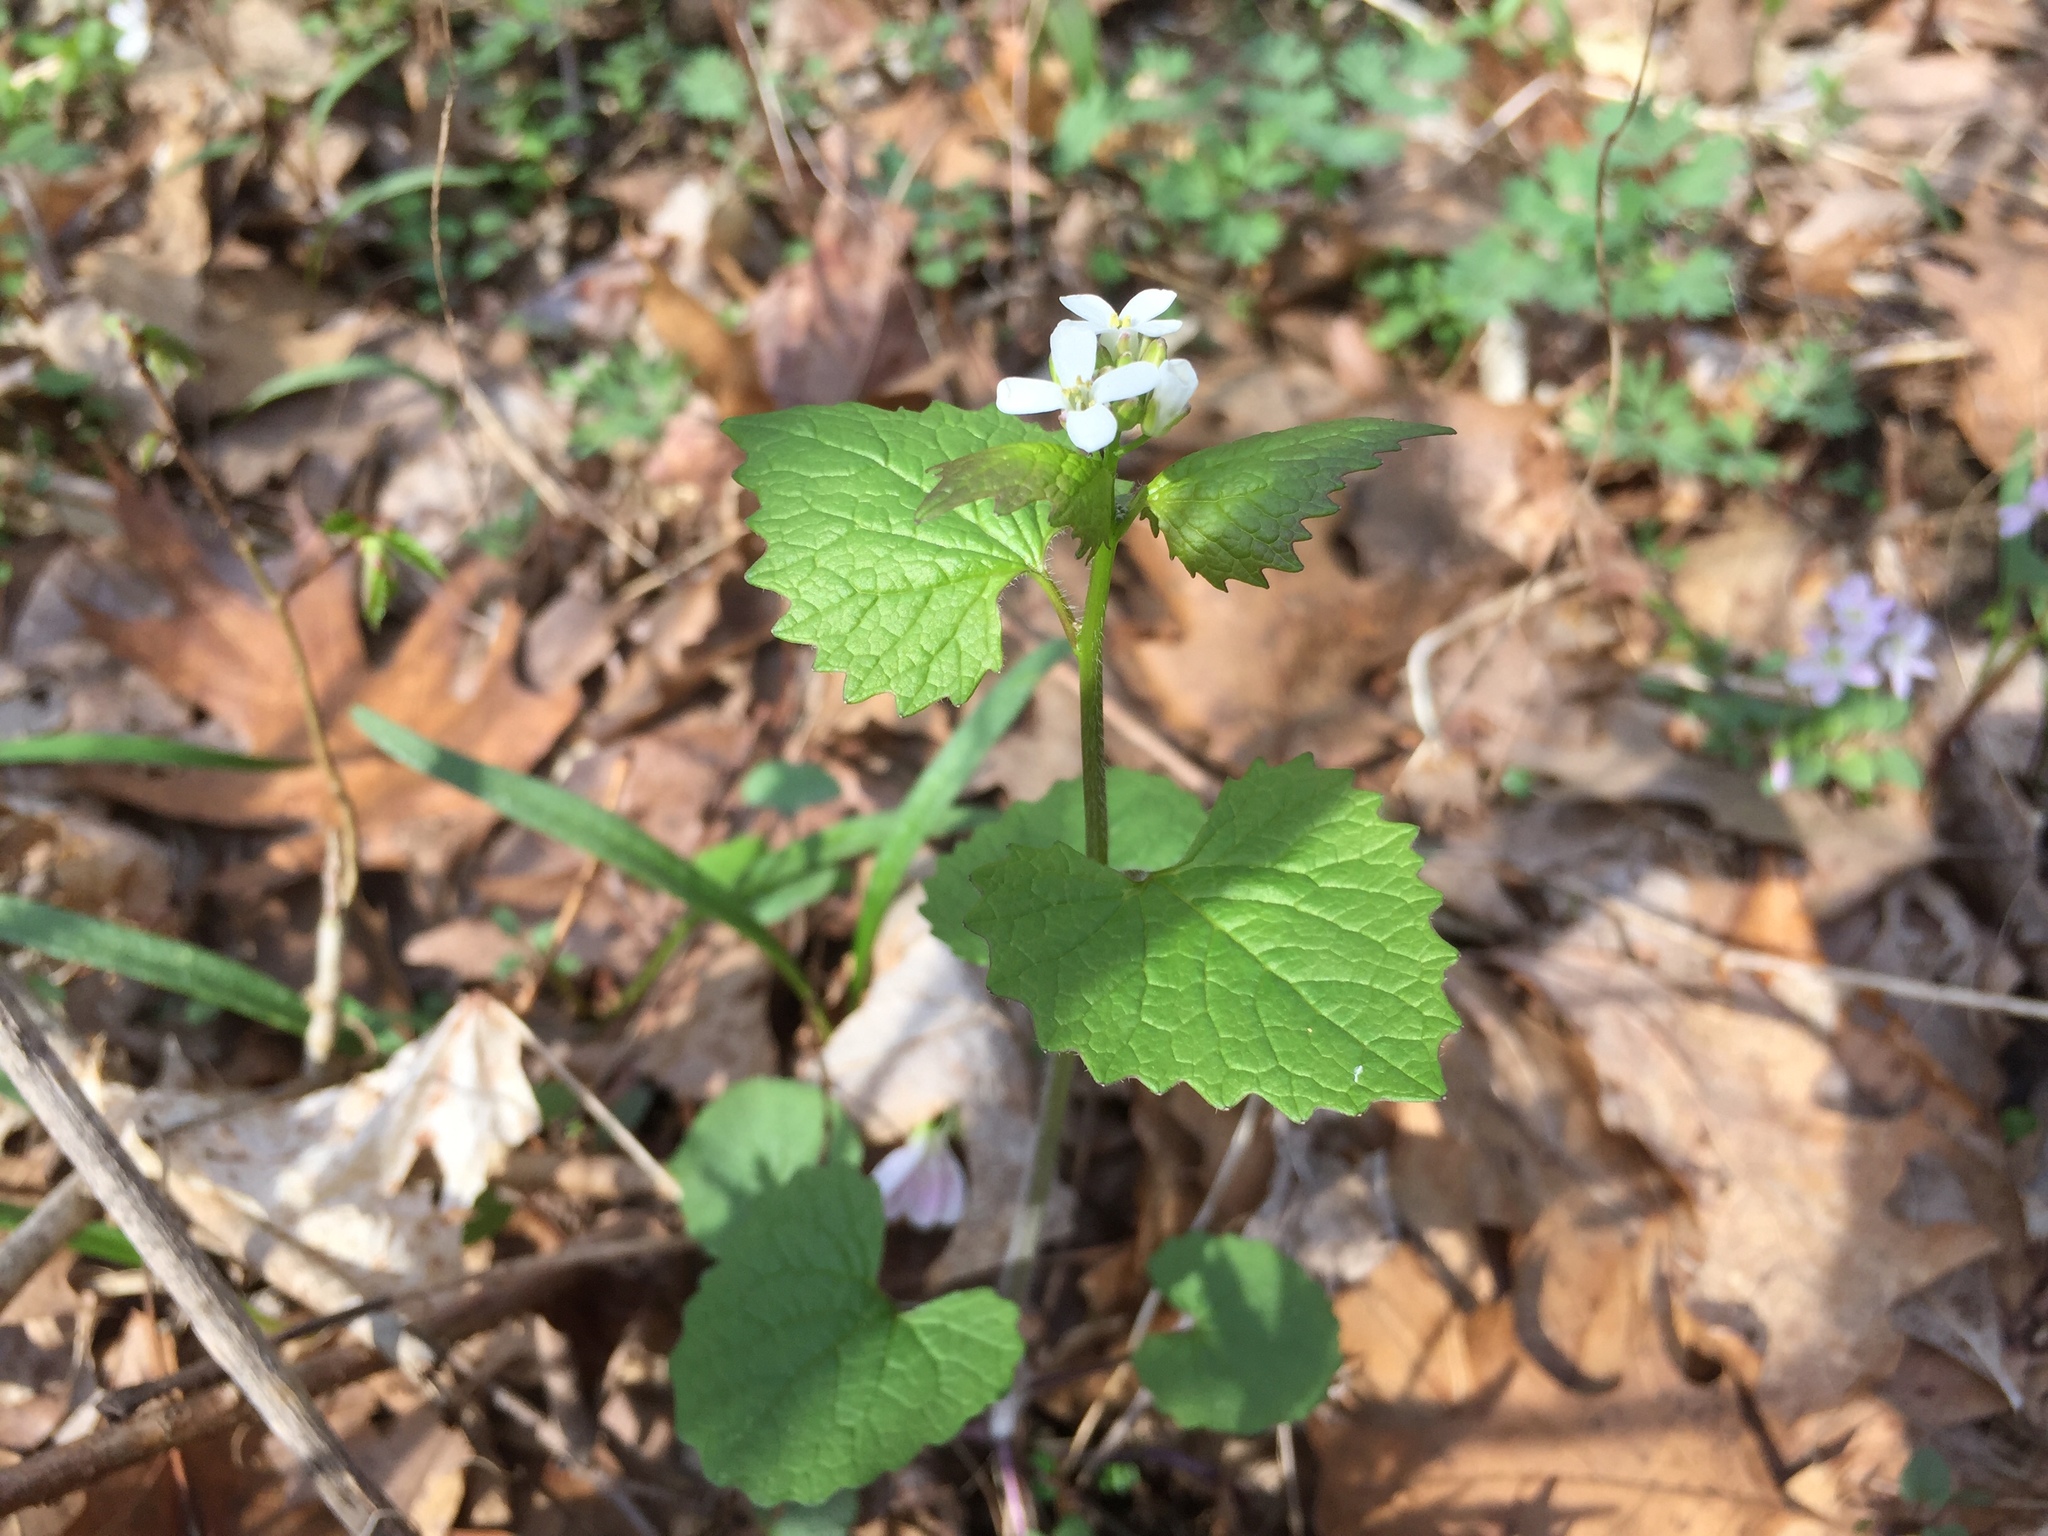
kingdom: Plantae
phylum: Tracheophyta
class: Magnoliopsida
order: Brassicales
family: Brassicaceae
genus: Alliaria
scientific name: Alliaria petiolata
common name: Garlic mustard
